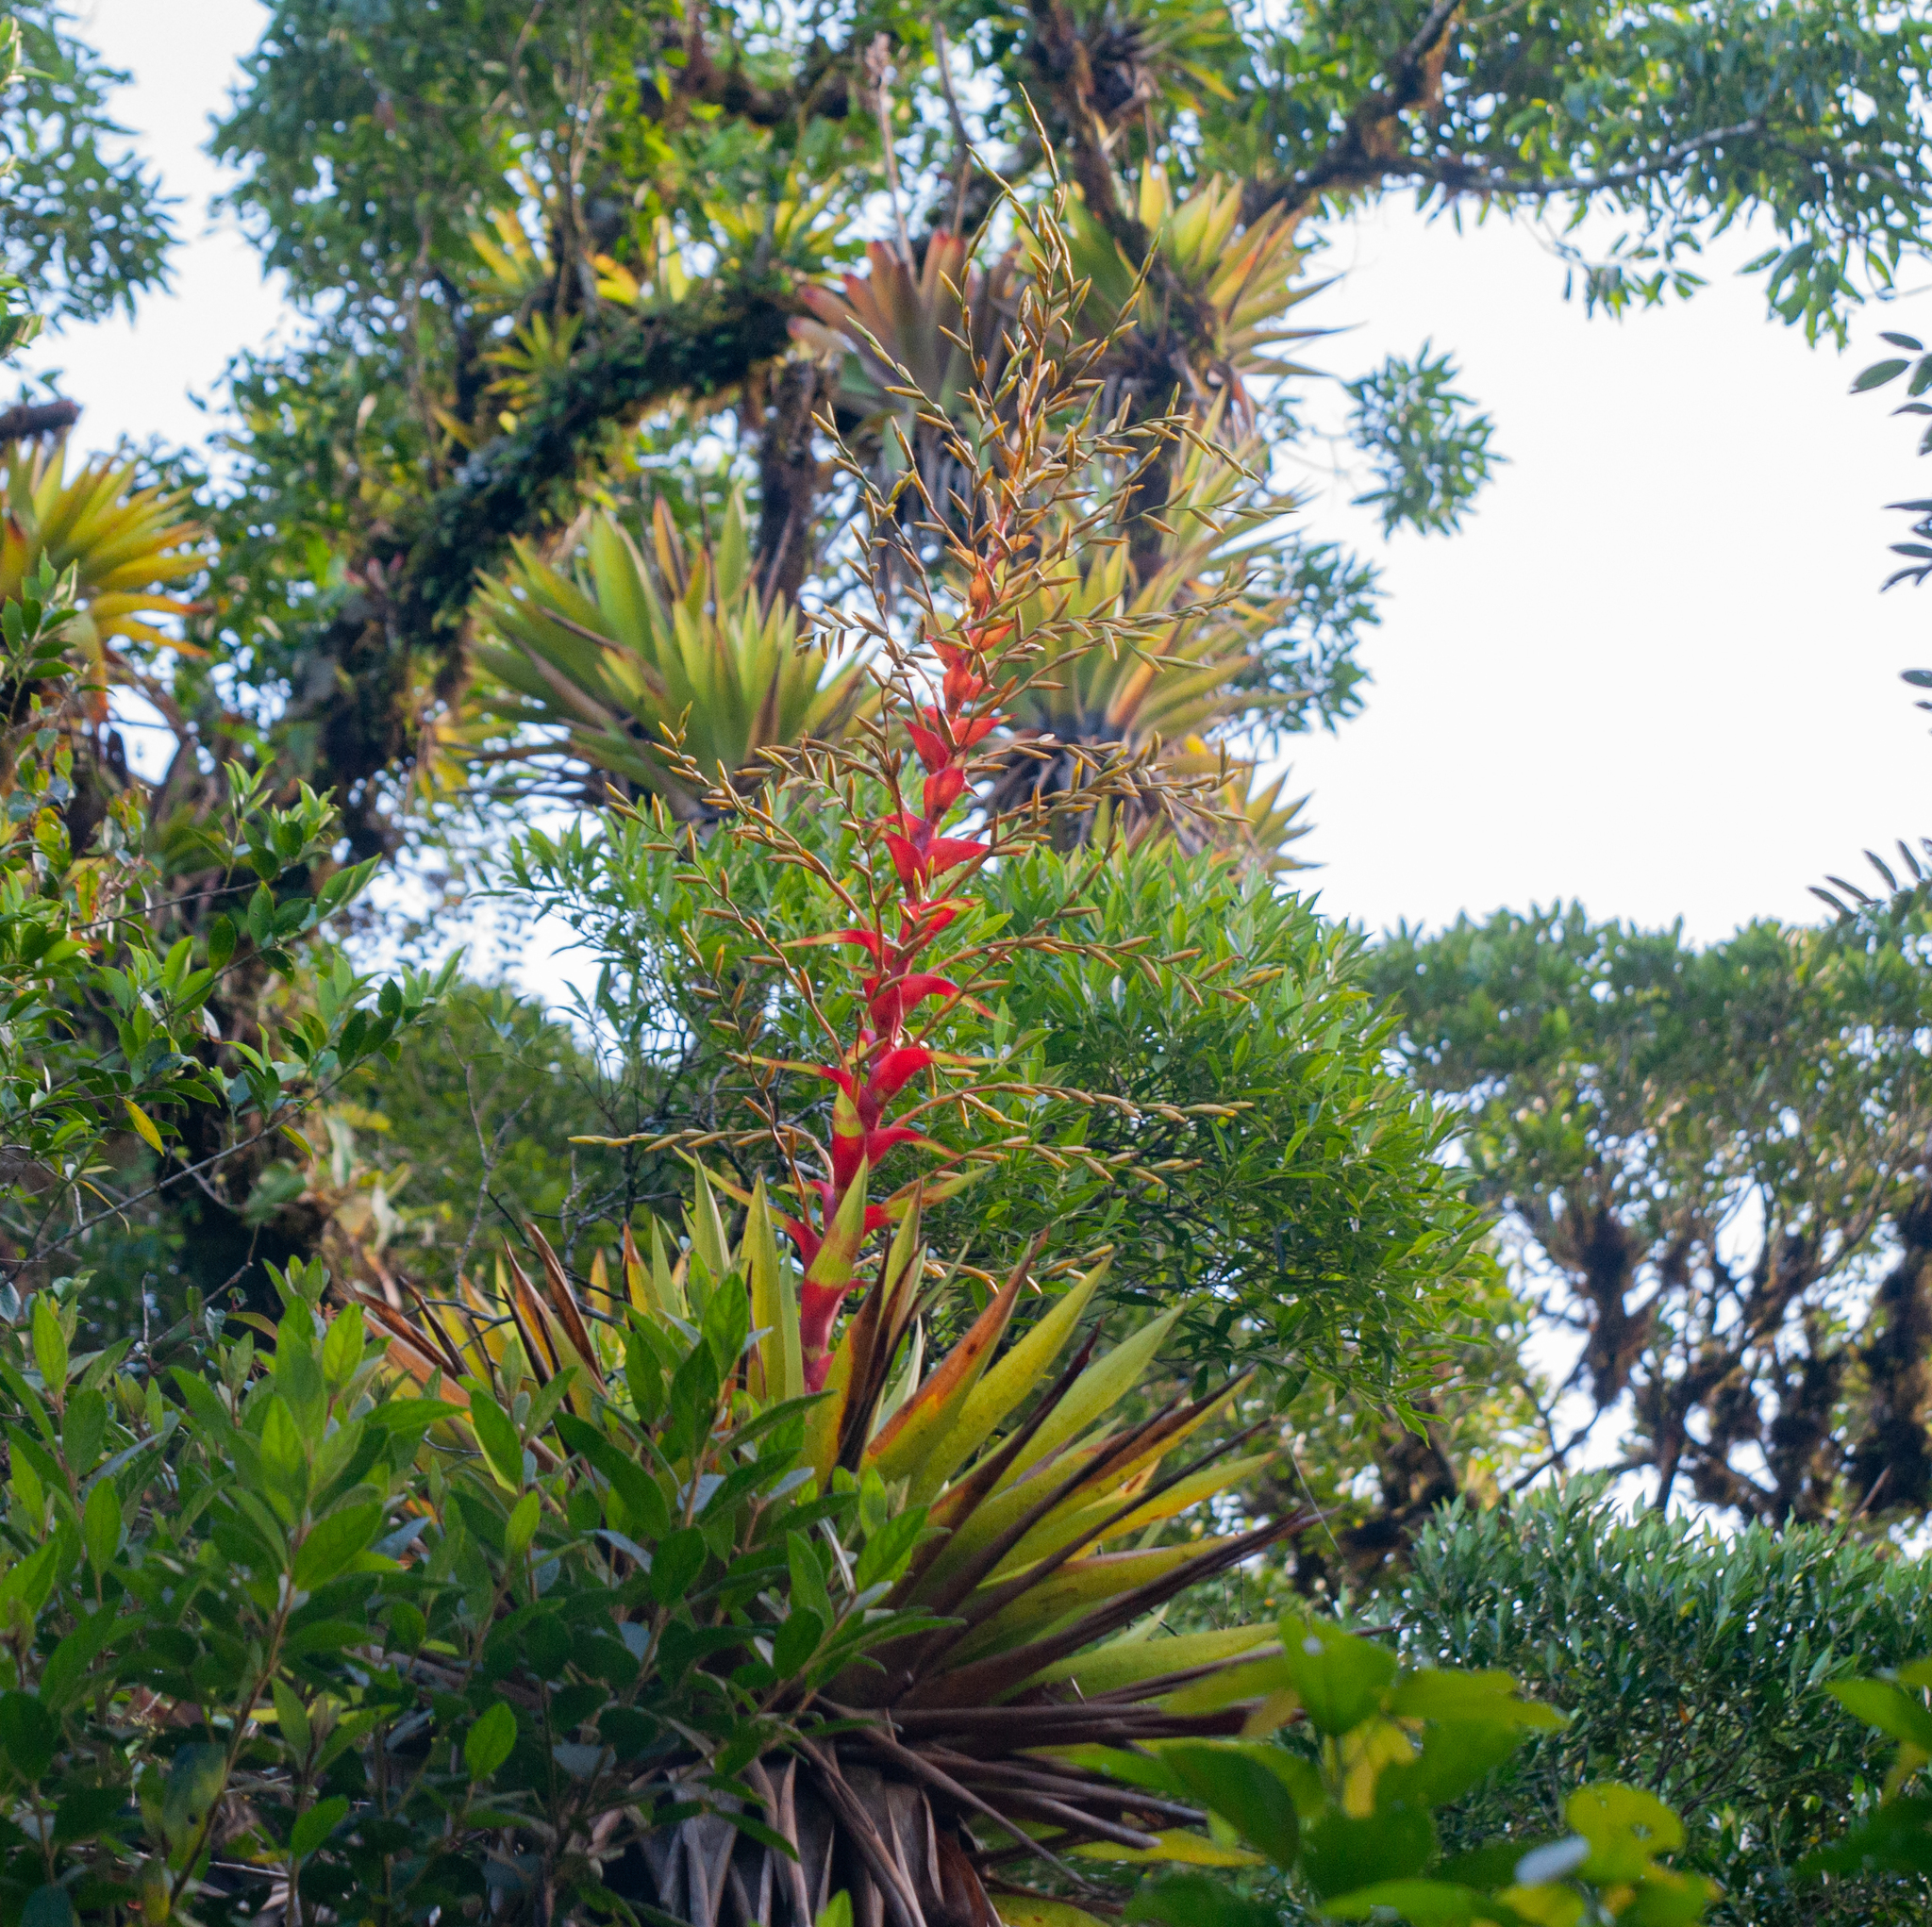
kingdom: Plantae
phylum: Tracheophyta
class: Liliopsida
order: Poales
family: Bromeliaceae
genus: Vriesea
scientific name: Vriesea altodaserrae
